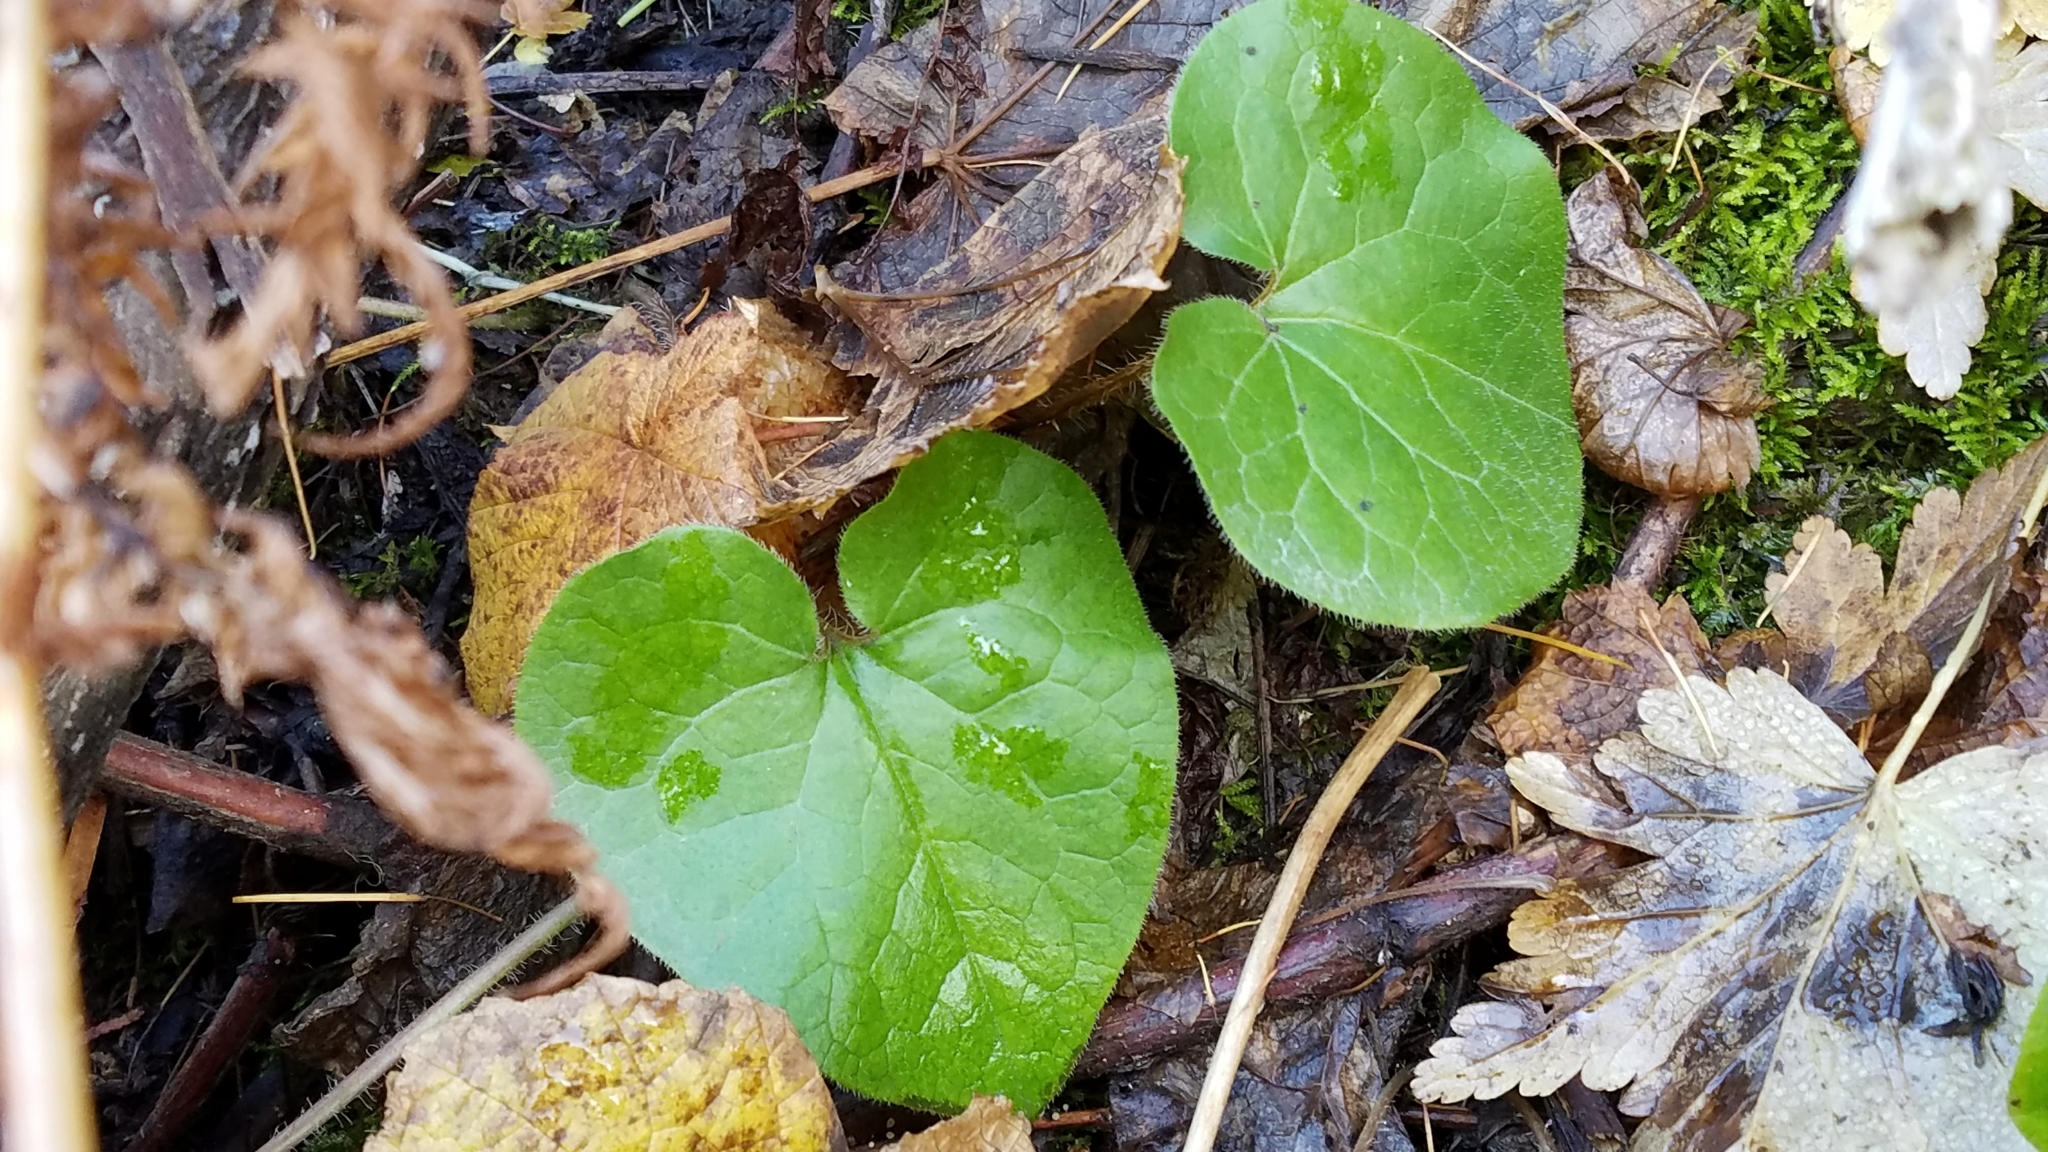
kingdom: Plantae
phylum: Tracheophyta
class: Magnoliopsida
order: Piperales
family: Aristolochiaceae
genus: Asarum
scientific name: Asarum caudatum
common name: Wild ginger
